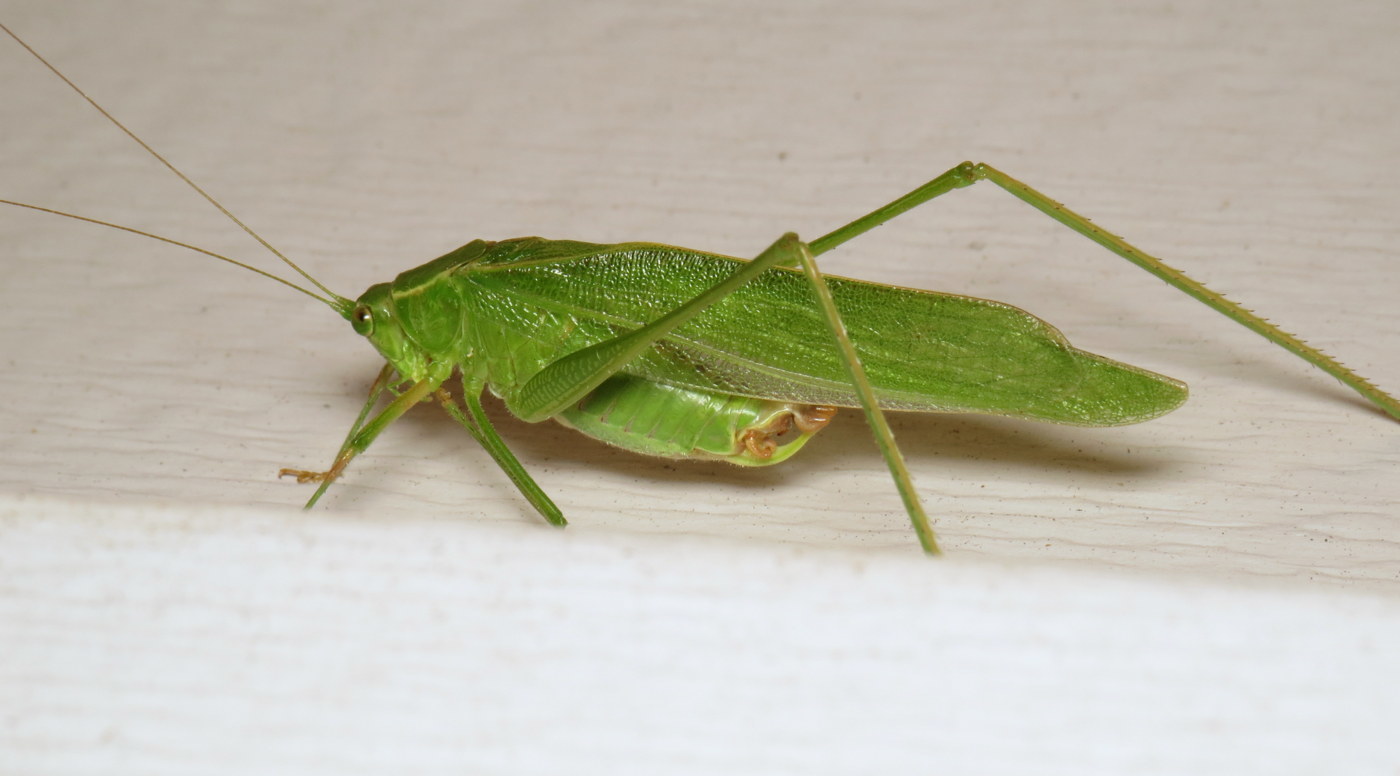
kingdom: Animalia
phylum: Arthropoda
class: Insecta
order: Orthoptera
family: Tettigoniidae
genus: Scudderia
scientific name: Scudderia furcata
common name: Fork-tailed bush katydid
